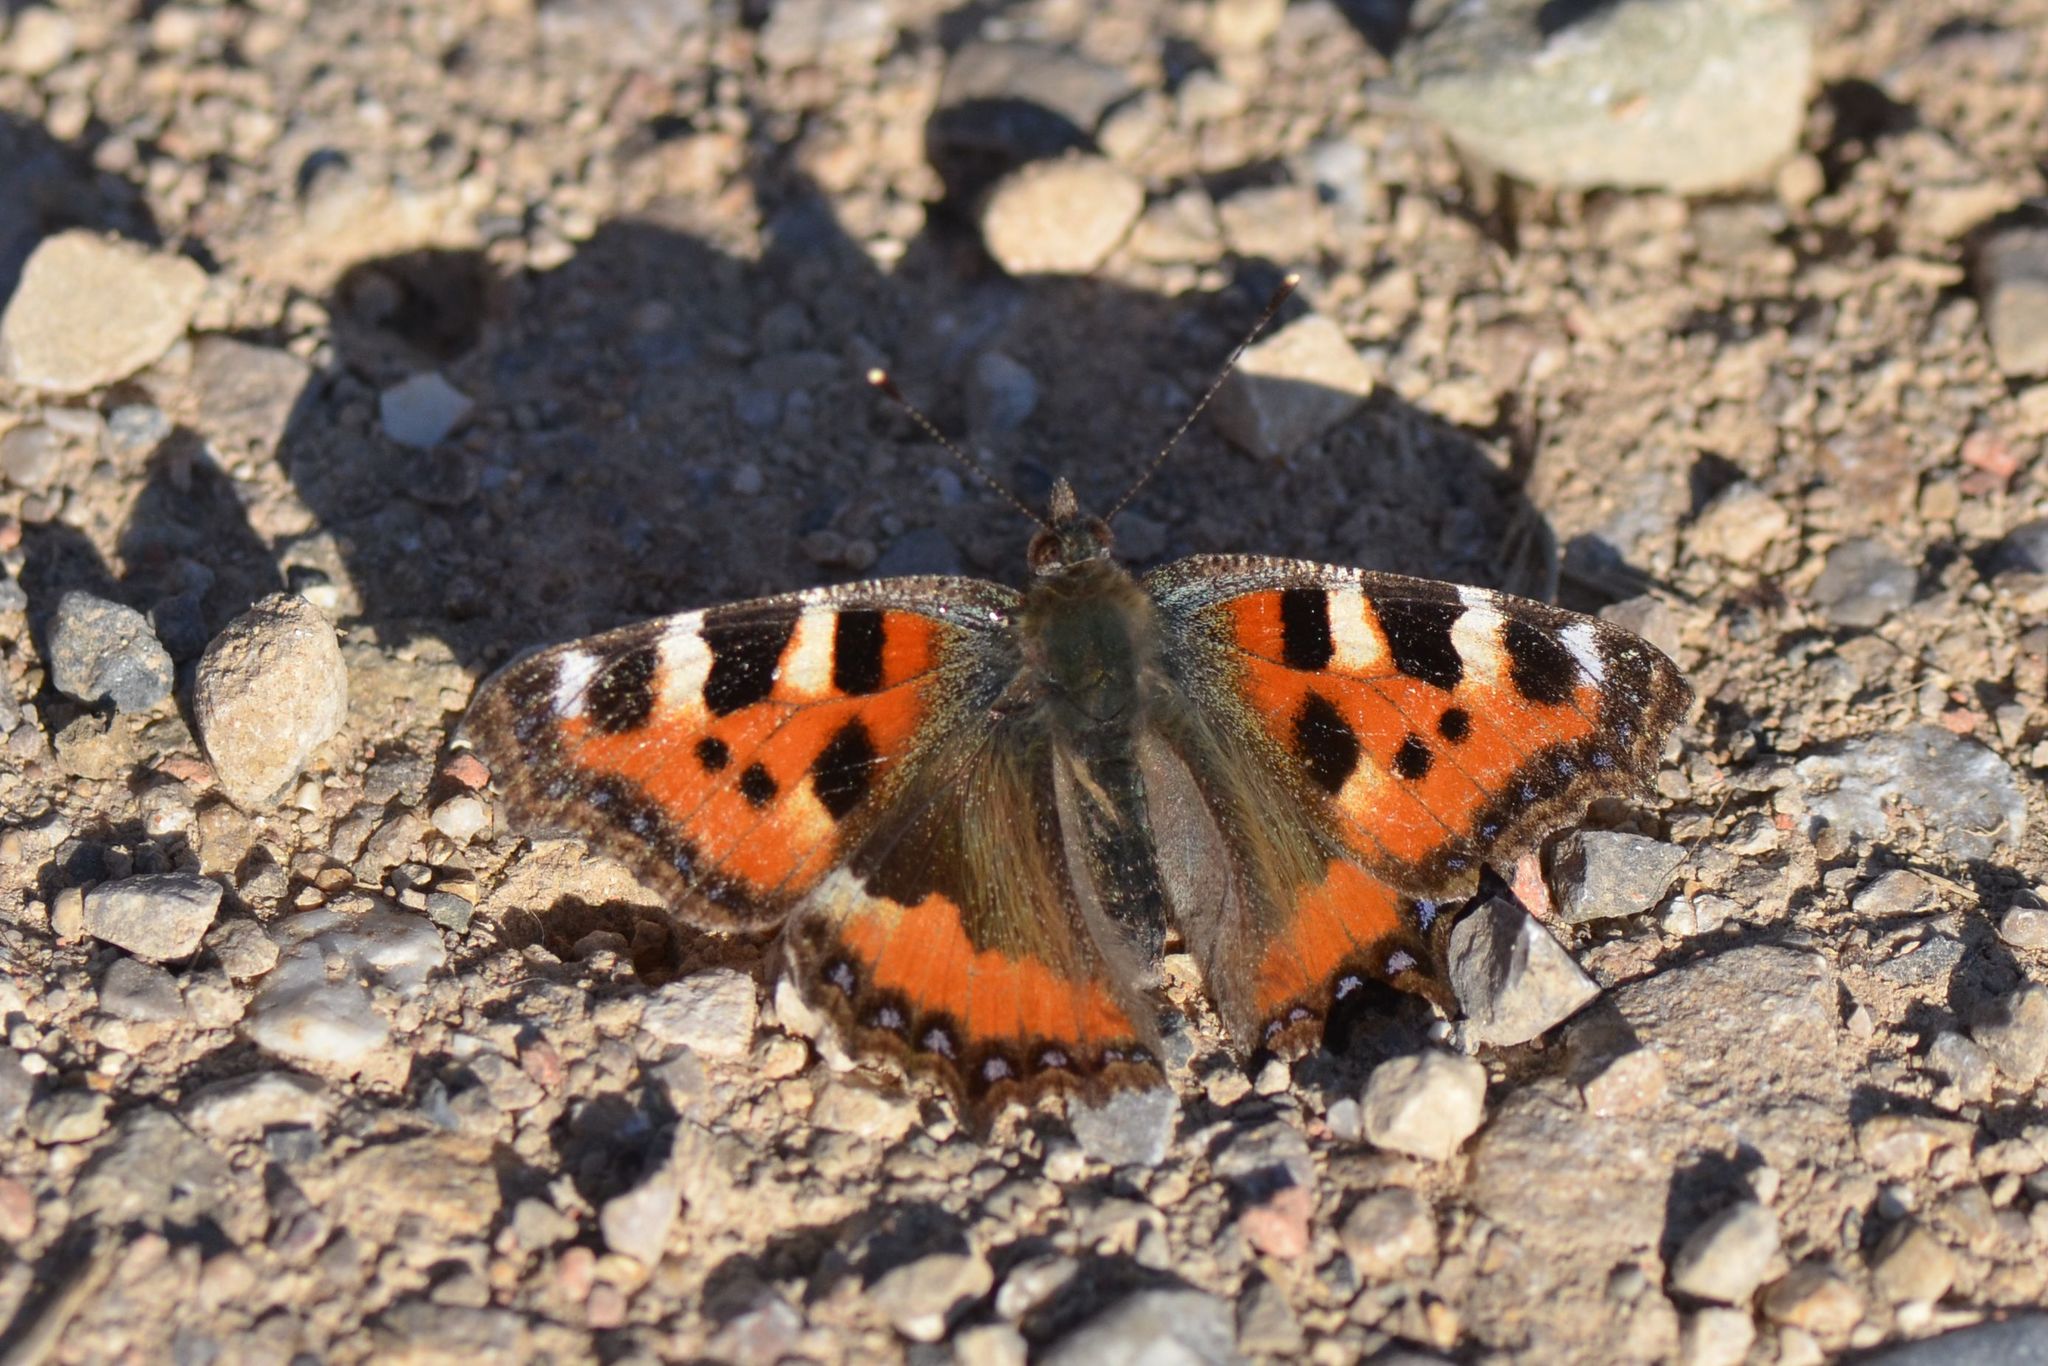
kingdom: Animalia
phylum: Arthropoda
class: Insecta
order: Lepidoptera
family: Nymphalidae
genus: Aglais
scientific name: Aglais urticae
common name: Small tortoiseshell
